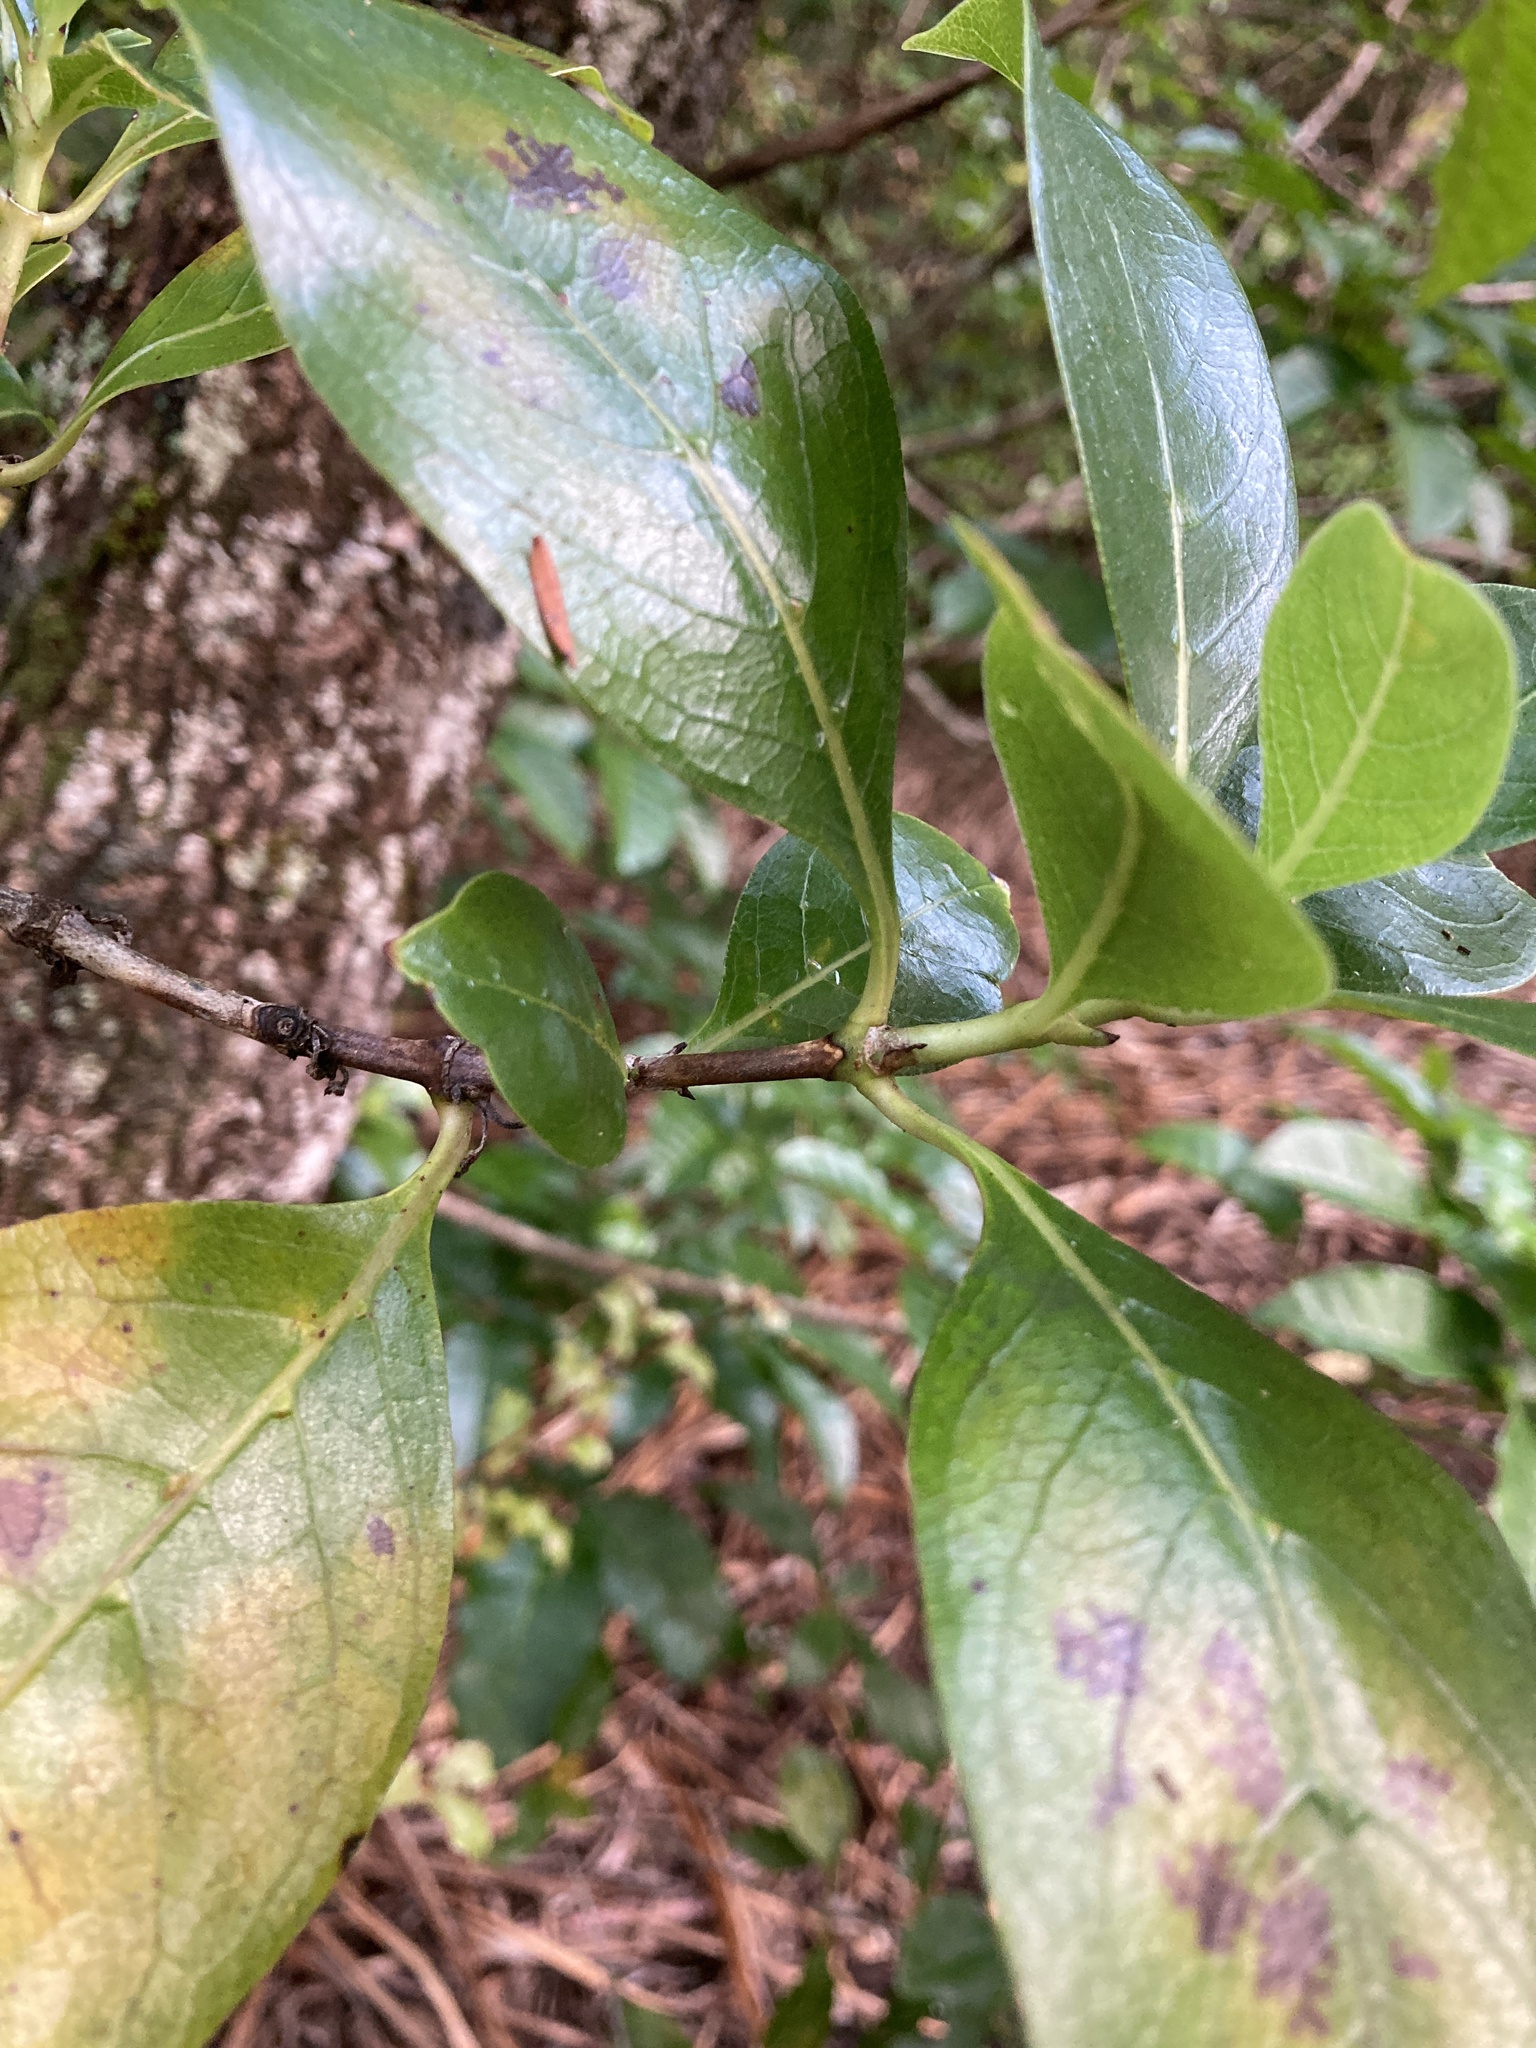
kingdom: Plantae
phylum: Tracheophyta
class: Magnoliopsida
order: Gentianales
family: Rubiaceae
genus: Coprosma
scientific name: Coprosma lucida
